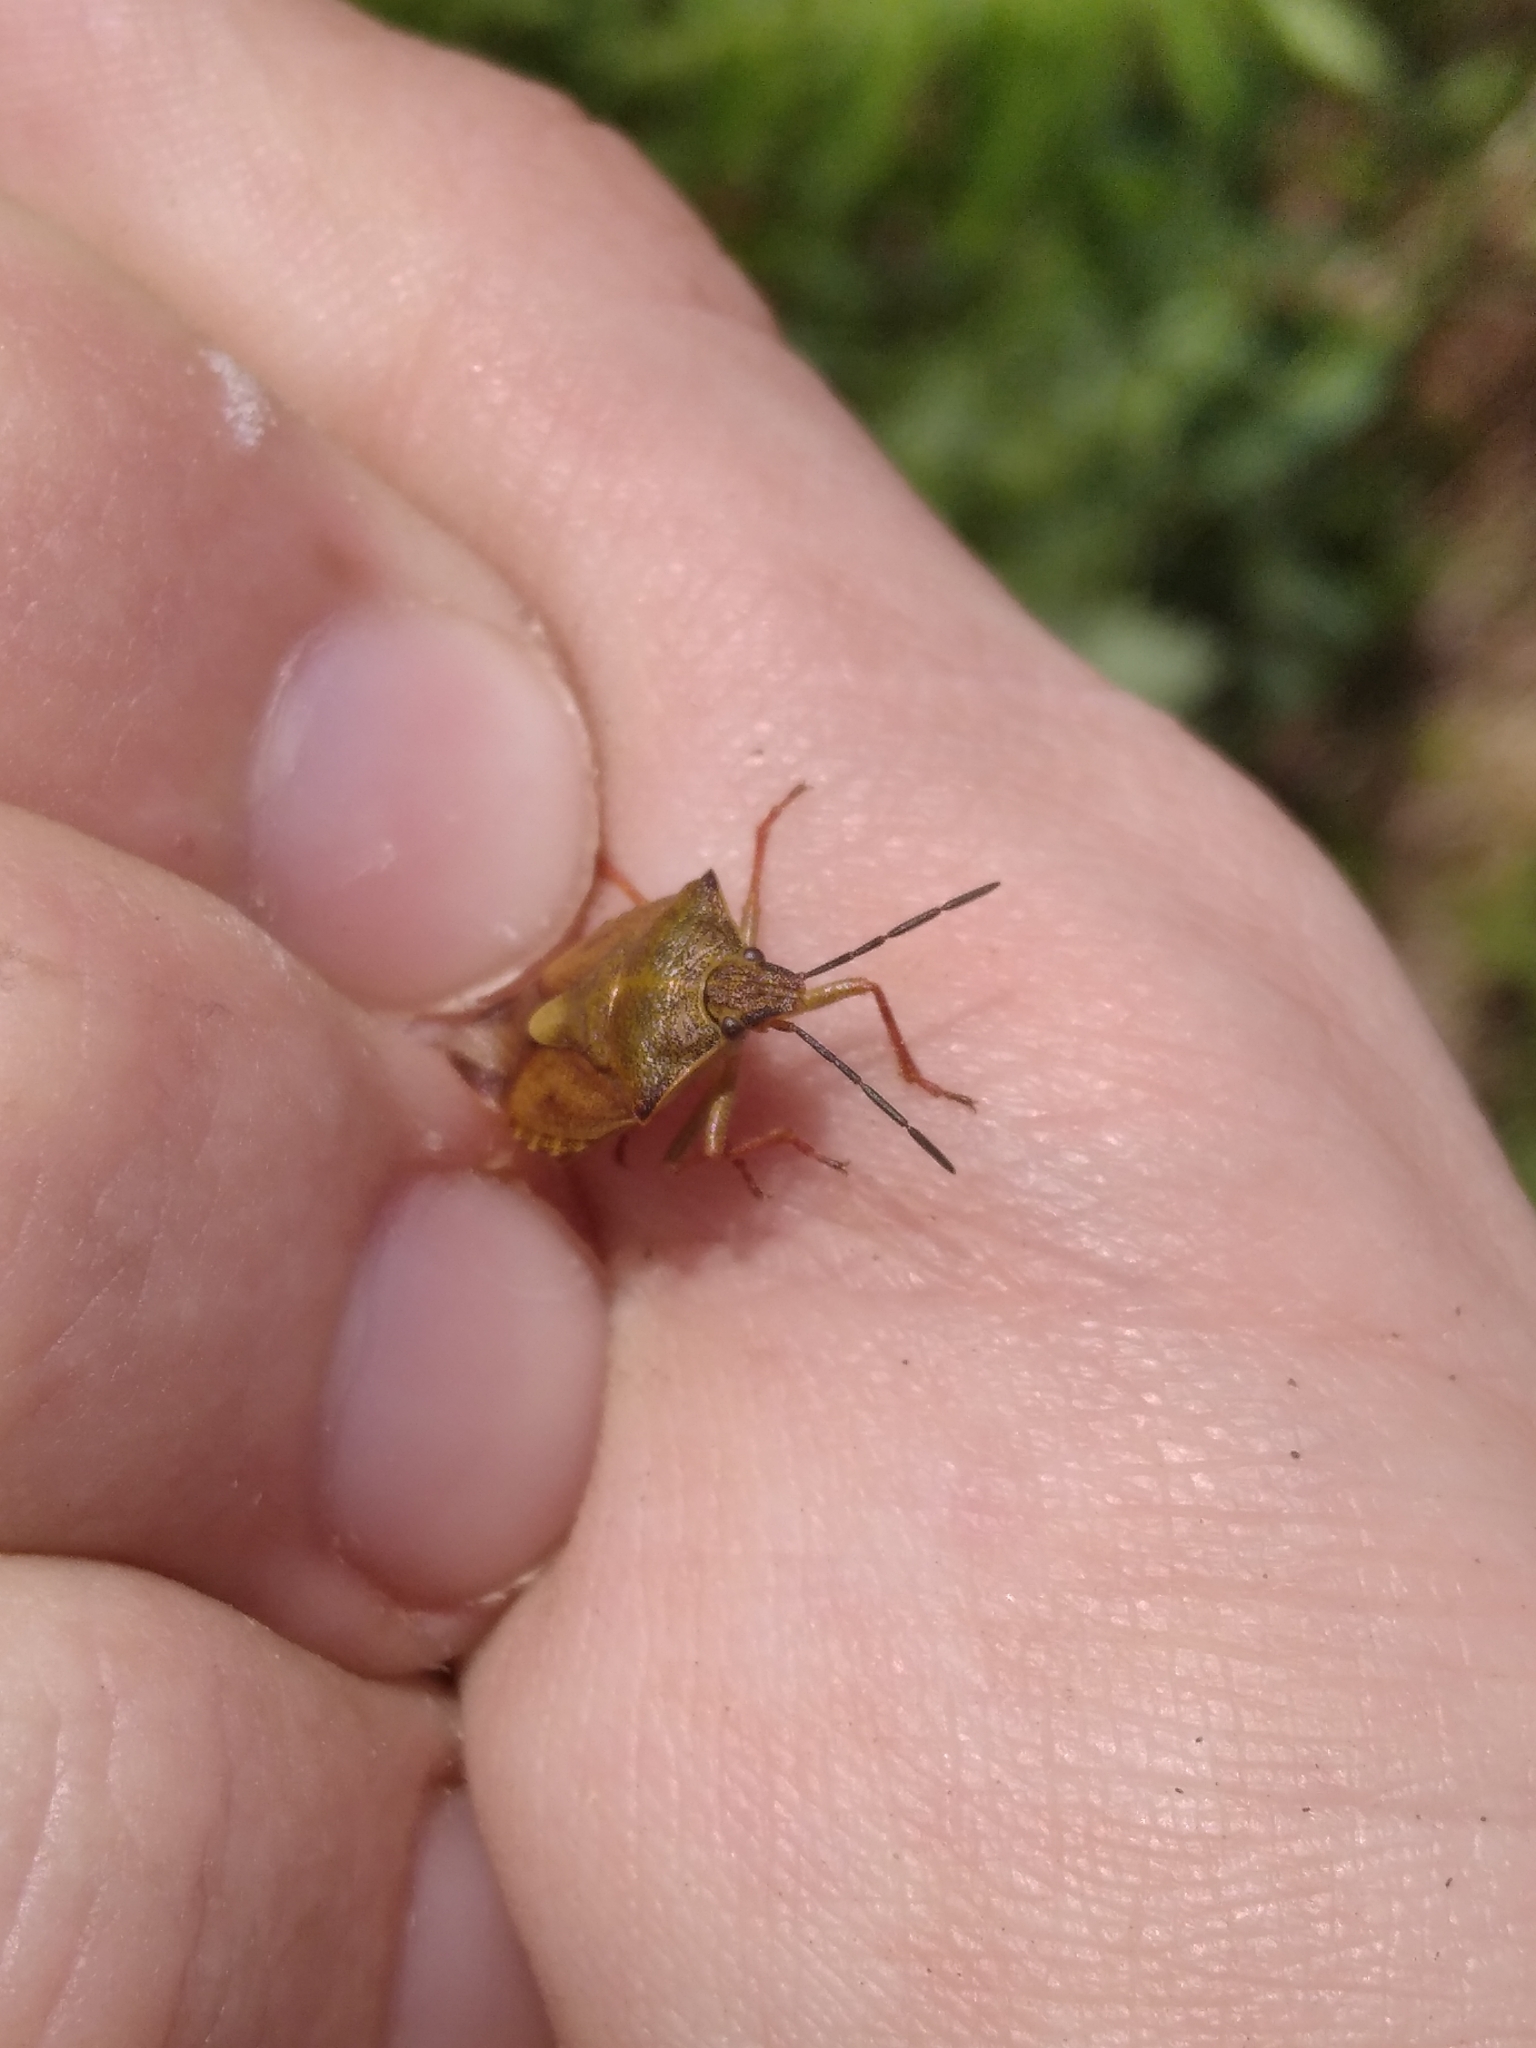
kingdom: Animalia
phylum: Arthropoda
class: Insecta
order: Hemiptera
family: Pentatomidae
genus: Carpocoris
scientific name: Carpocoris purpureipennis
